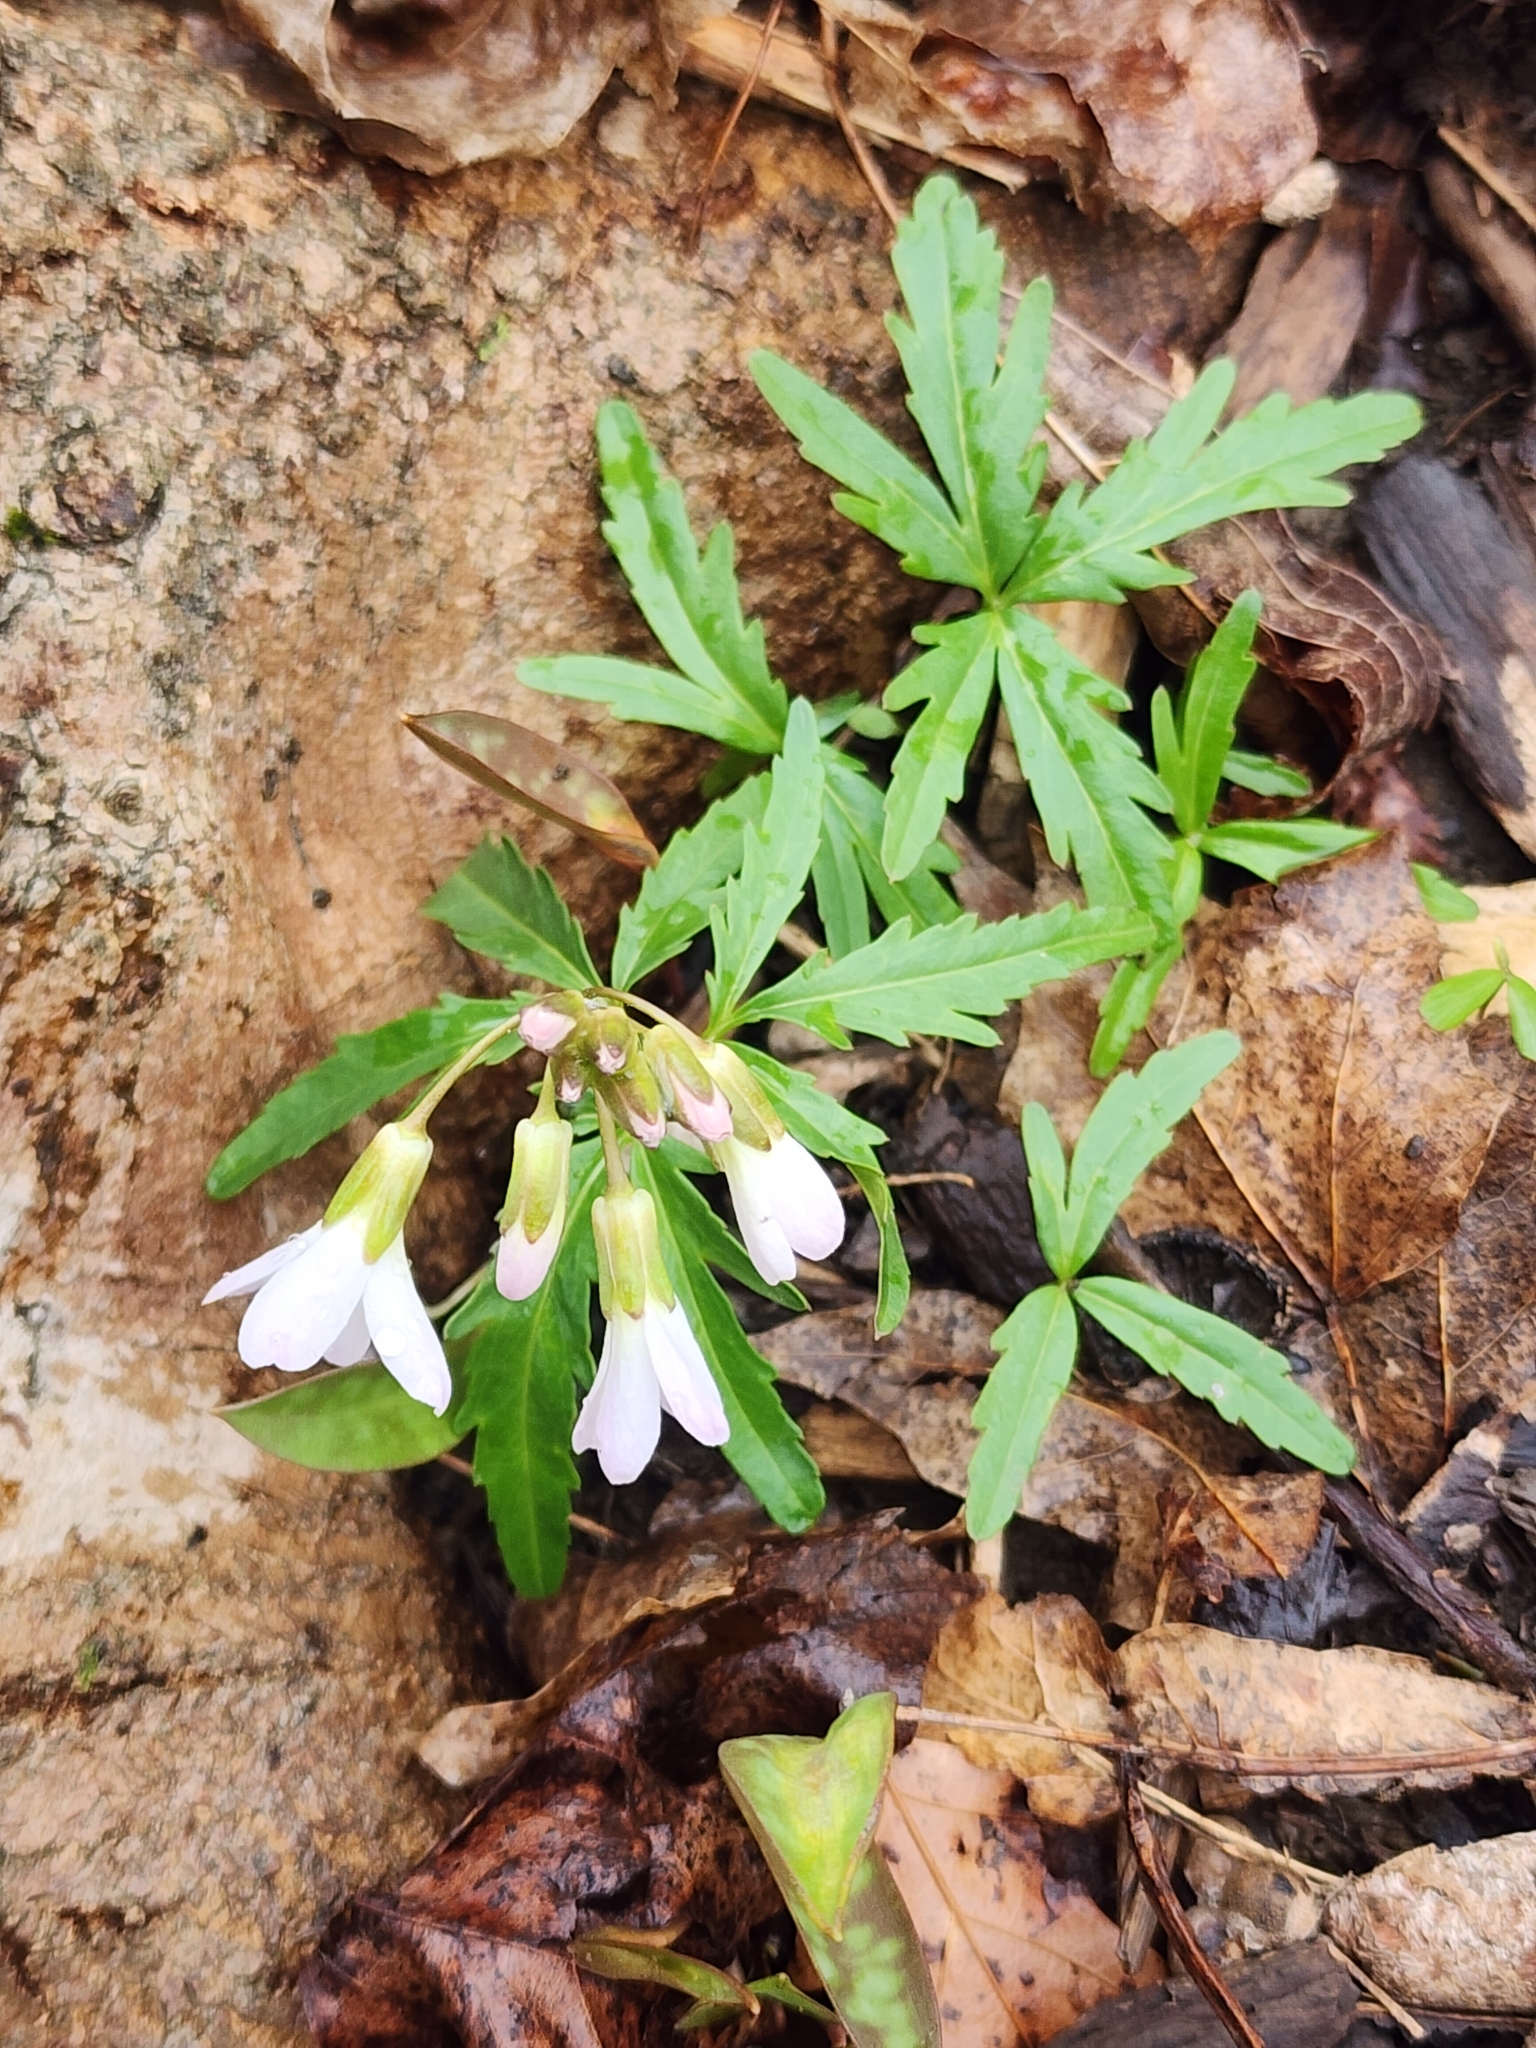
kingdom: Plantae
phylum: Tracheophyta
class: Magnoliopsida
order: Brassicales
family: Brassicaceae
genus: Cardamine
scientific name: Cardamine concatenata
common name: Cut-leaf toothcup
